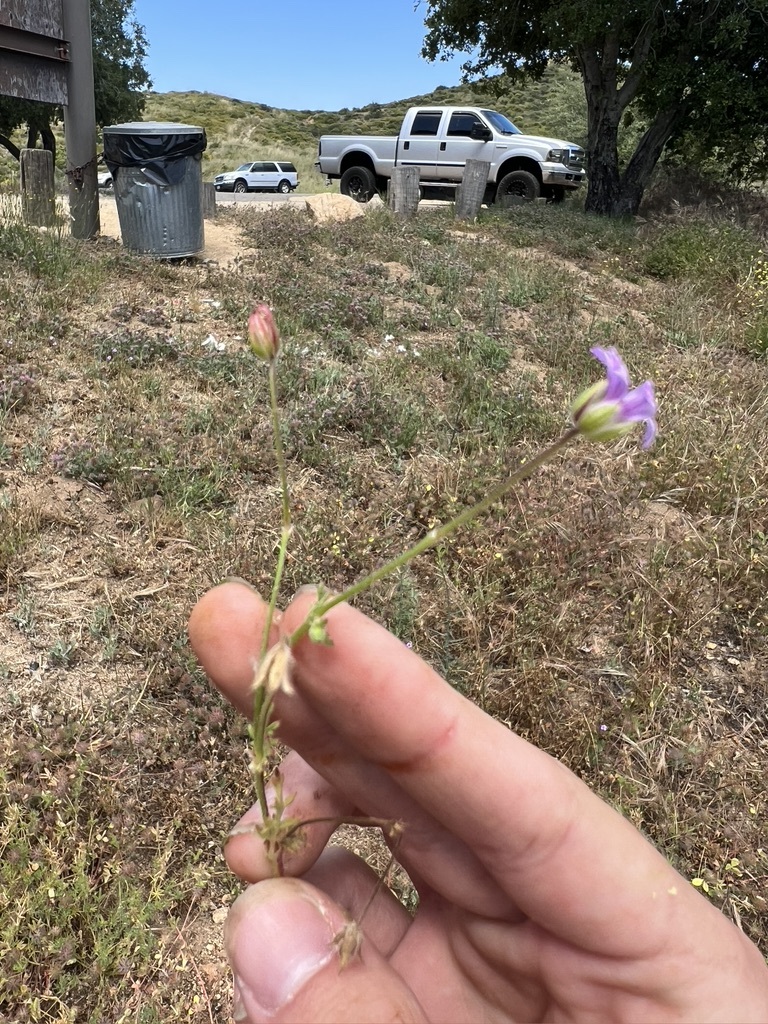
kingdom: Plantae
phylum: Tracheophyta
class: Magnoliopsida
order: Geraniales
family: Geraniaceae
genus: Erodium
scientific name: Erodium botrys
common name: Mediterranean stork's-bill
